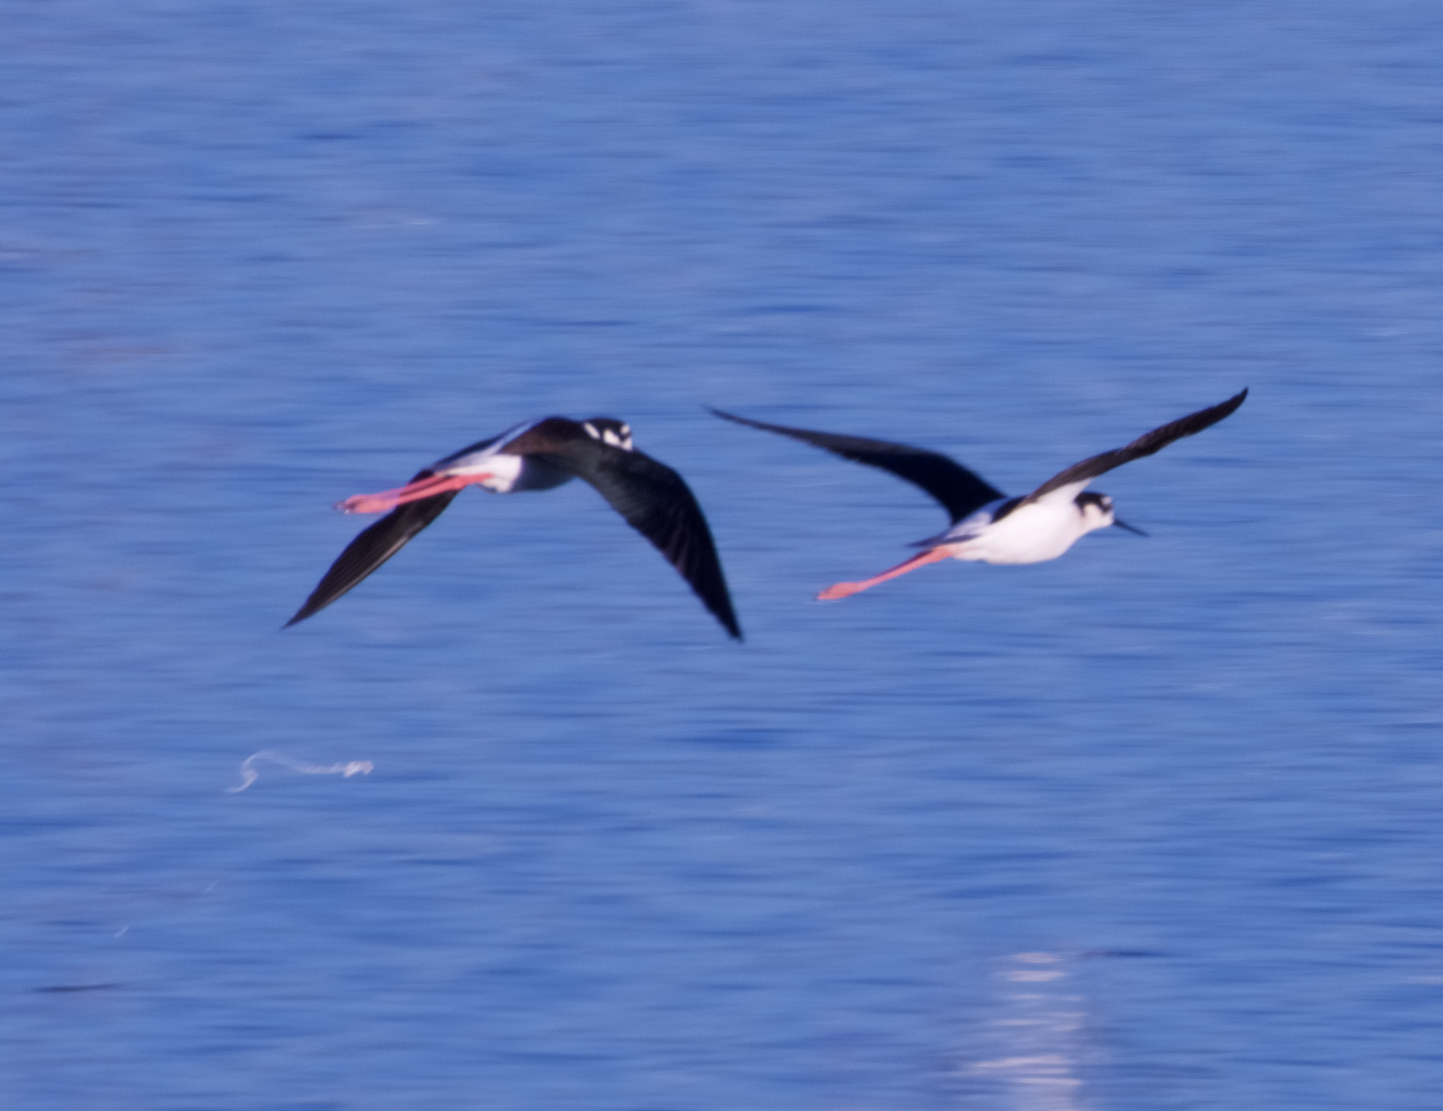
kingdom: Animalia
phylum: Chordata
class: Aves
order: Charadriiformes
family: Recurvirostridae
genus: Himantopus
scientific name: Himantopus mexicanus
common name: Black-necked stilt
